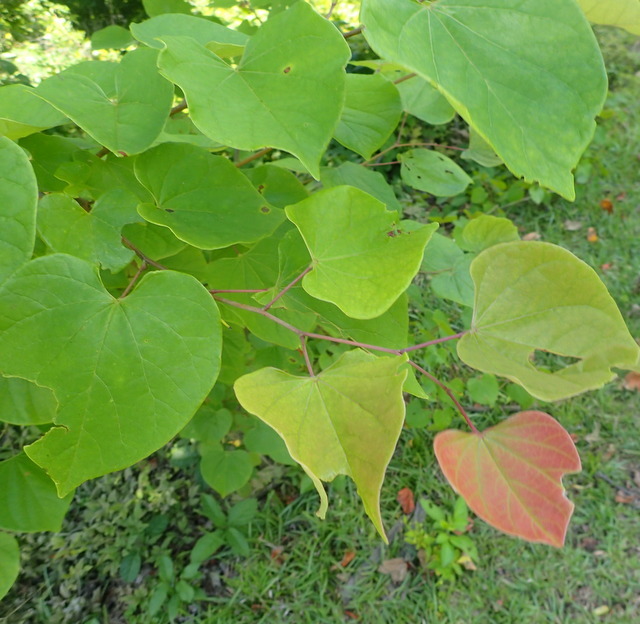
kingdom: Plantae
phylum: Tracheophyta
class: Magnoliopsida
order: Fabales
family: Fabaceae
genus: Cercis
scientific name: Cercis canadensis
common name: Eastern redbud
